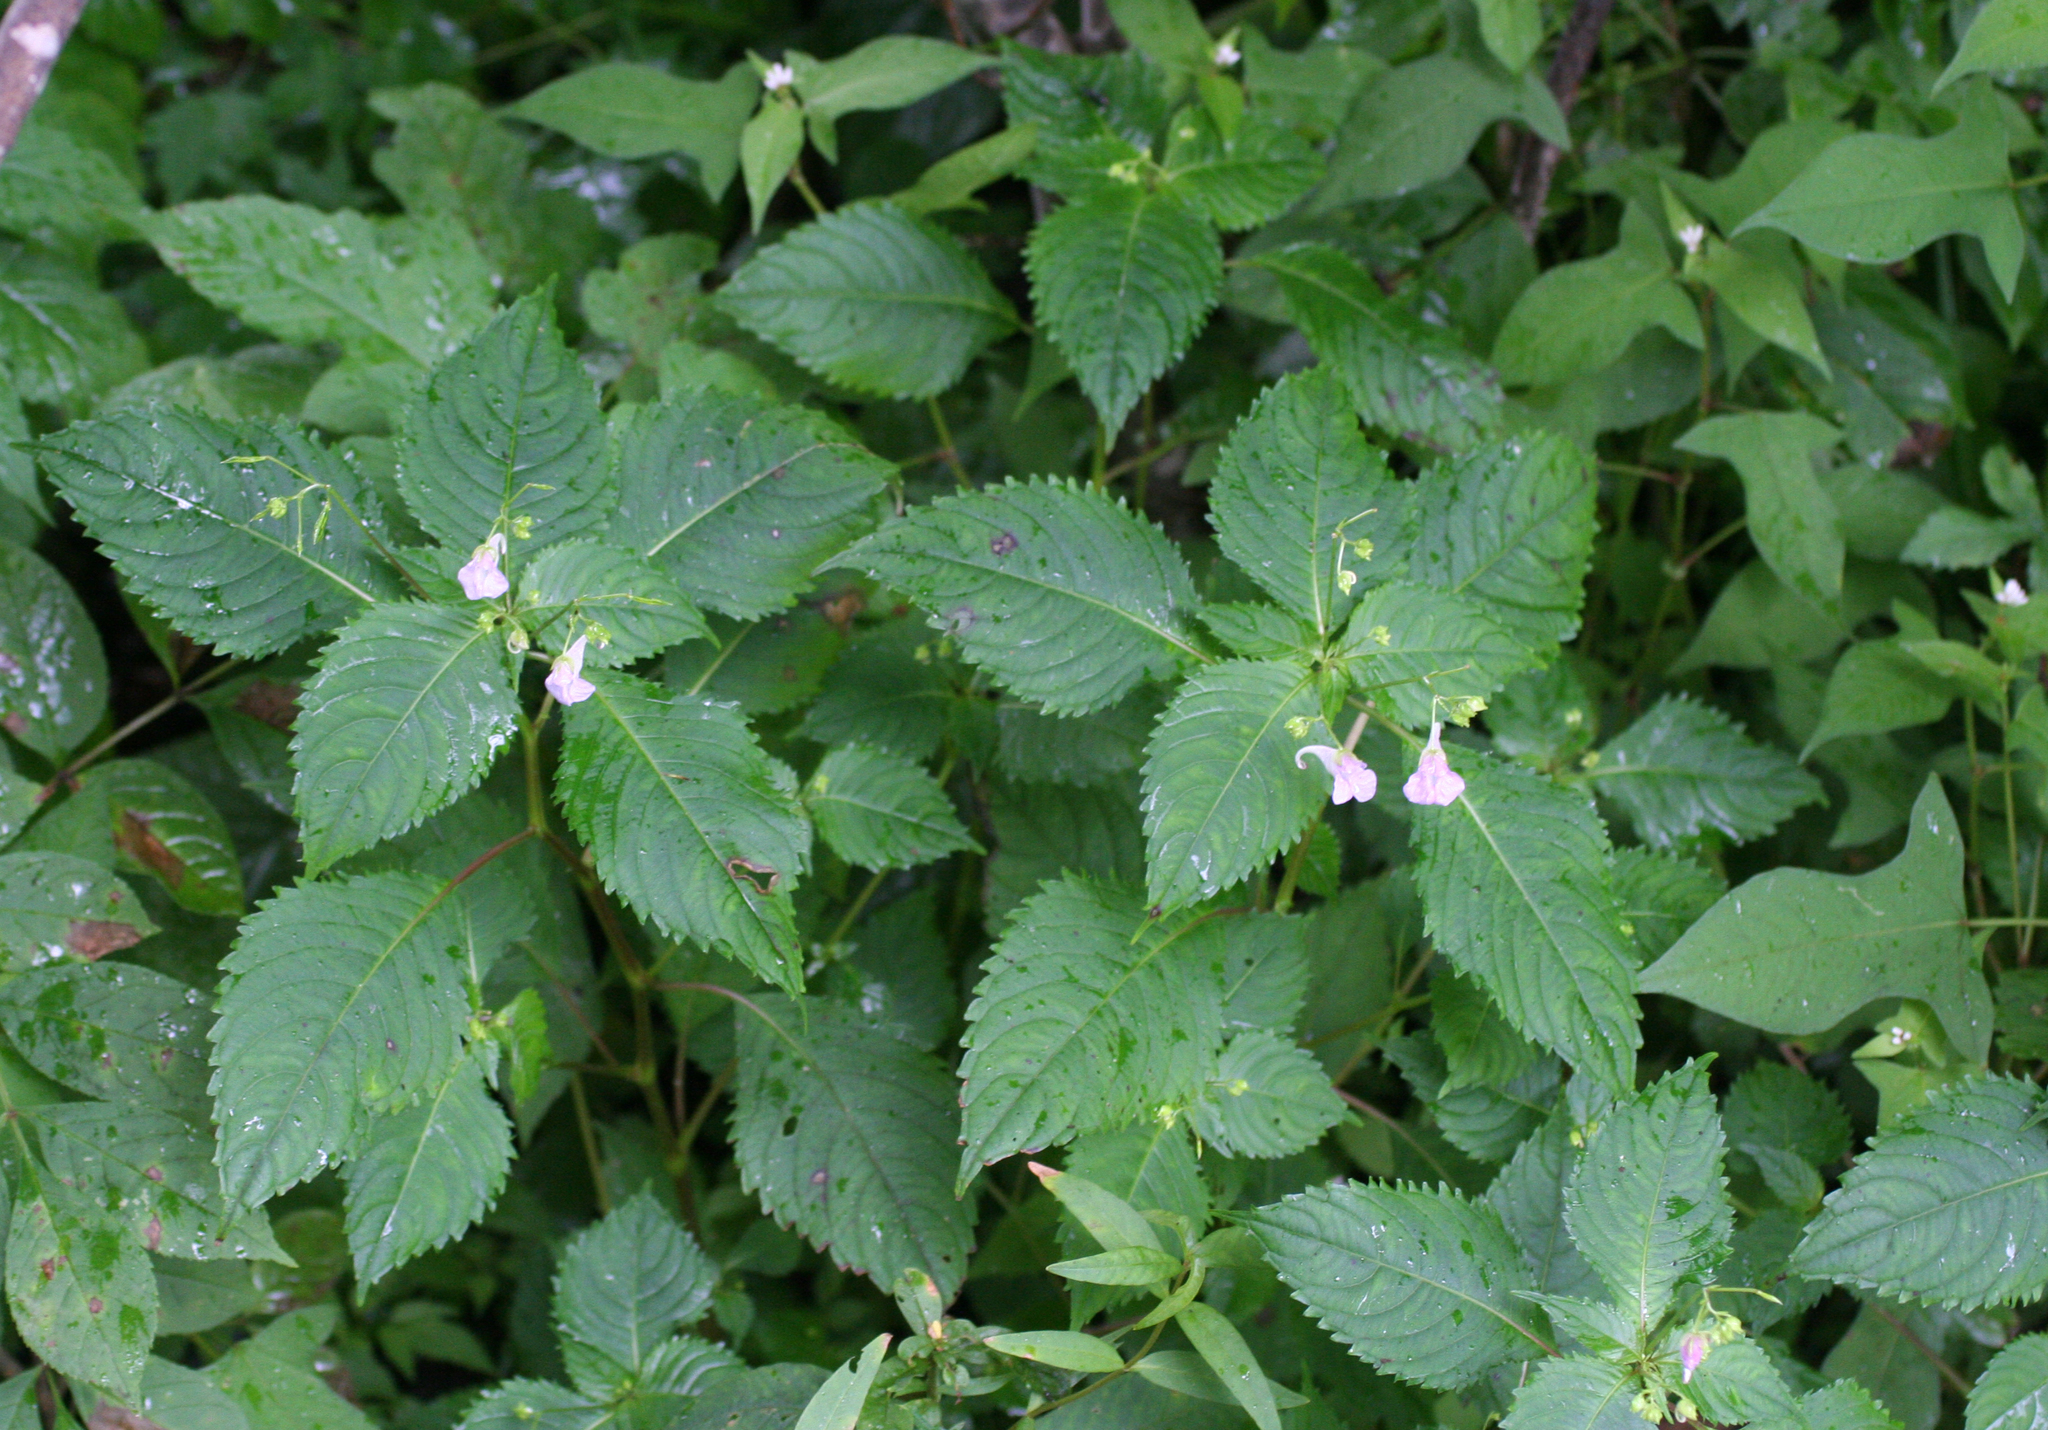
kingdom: Plantae
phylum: Tracheophyta
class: Magnoliopsida
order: Ericales
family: Balsaminaceae
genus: Impatiens
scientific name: Impatiens furcillata
